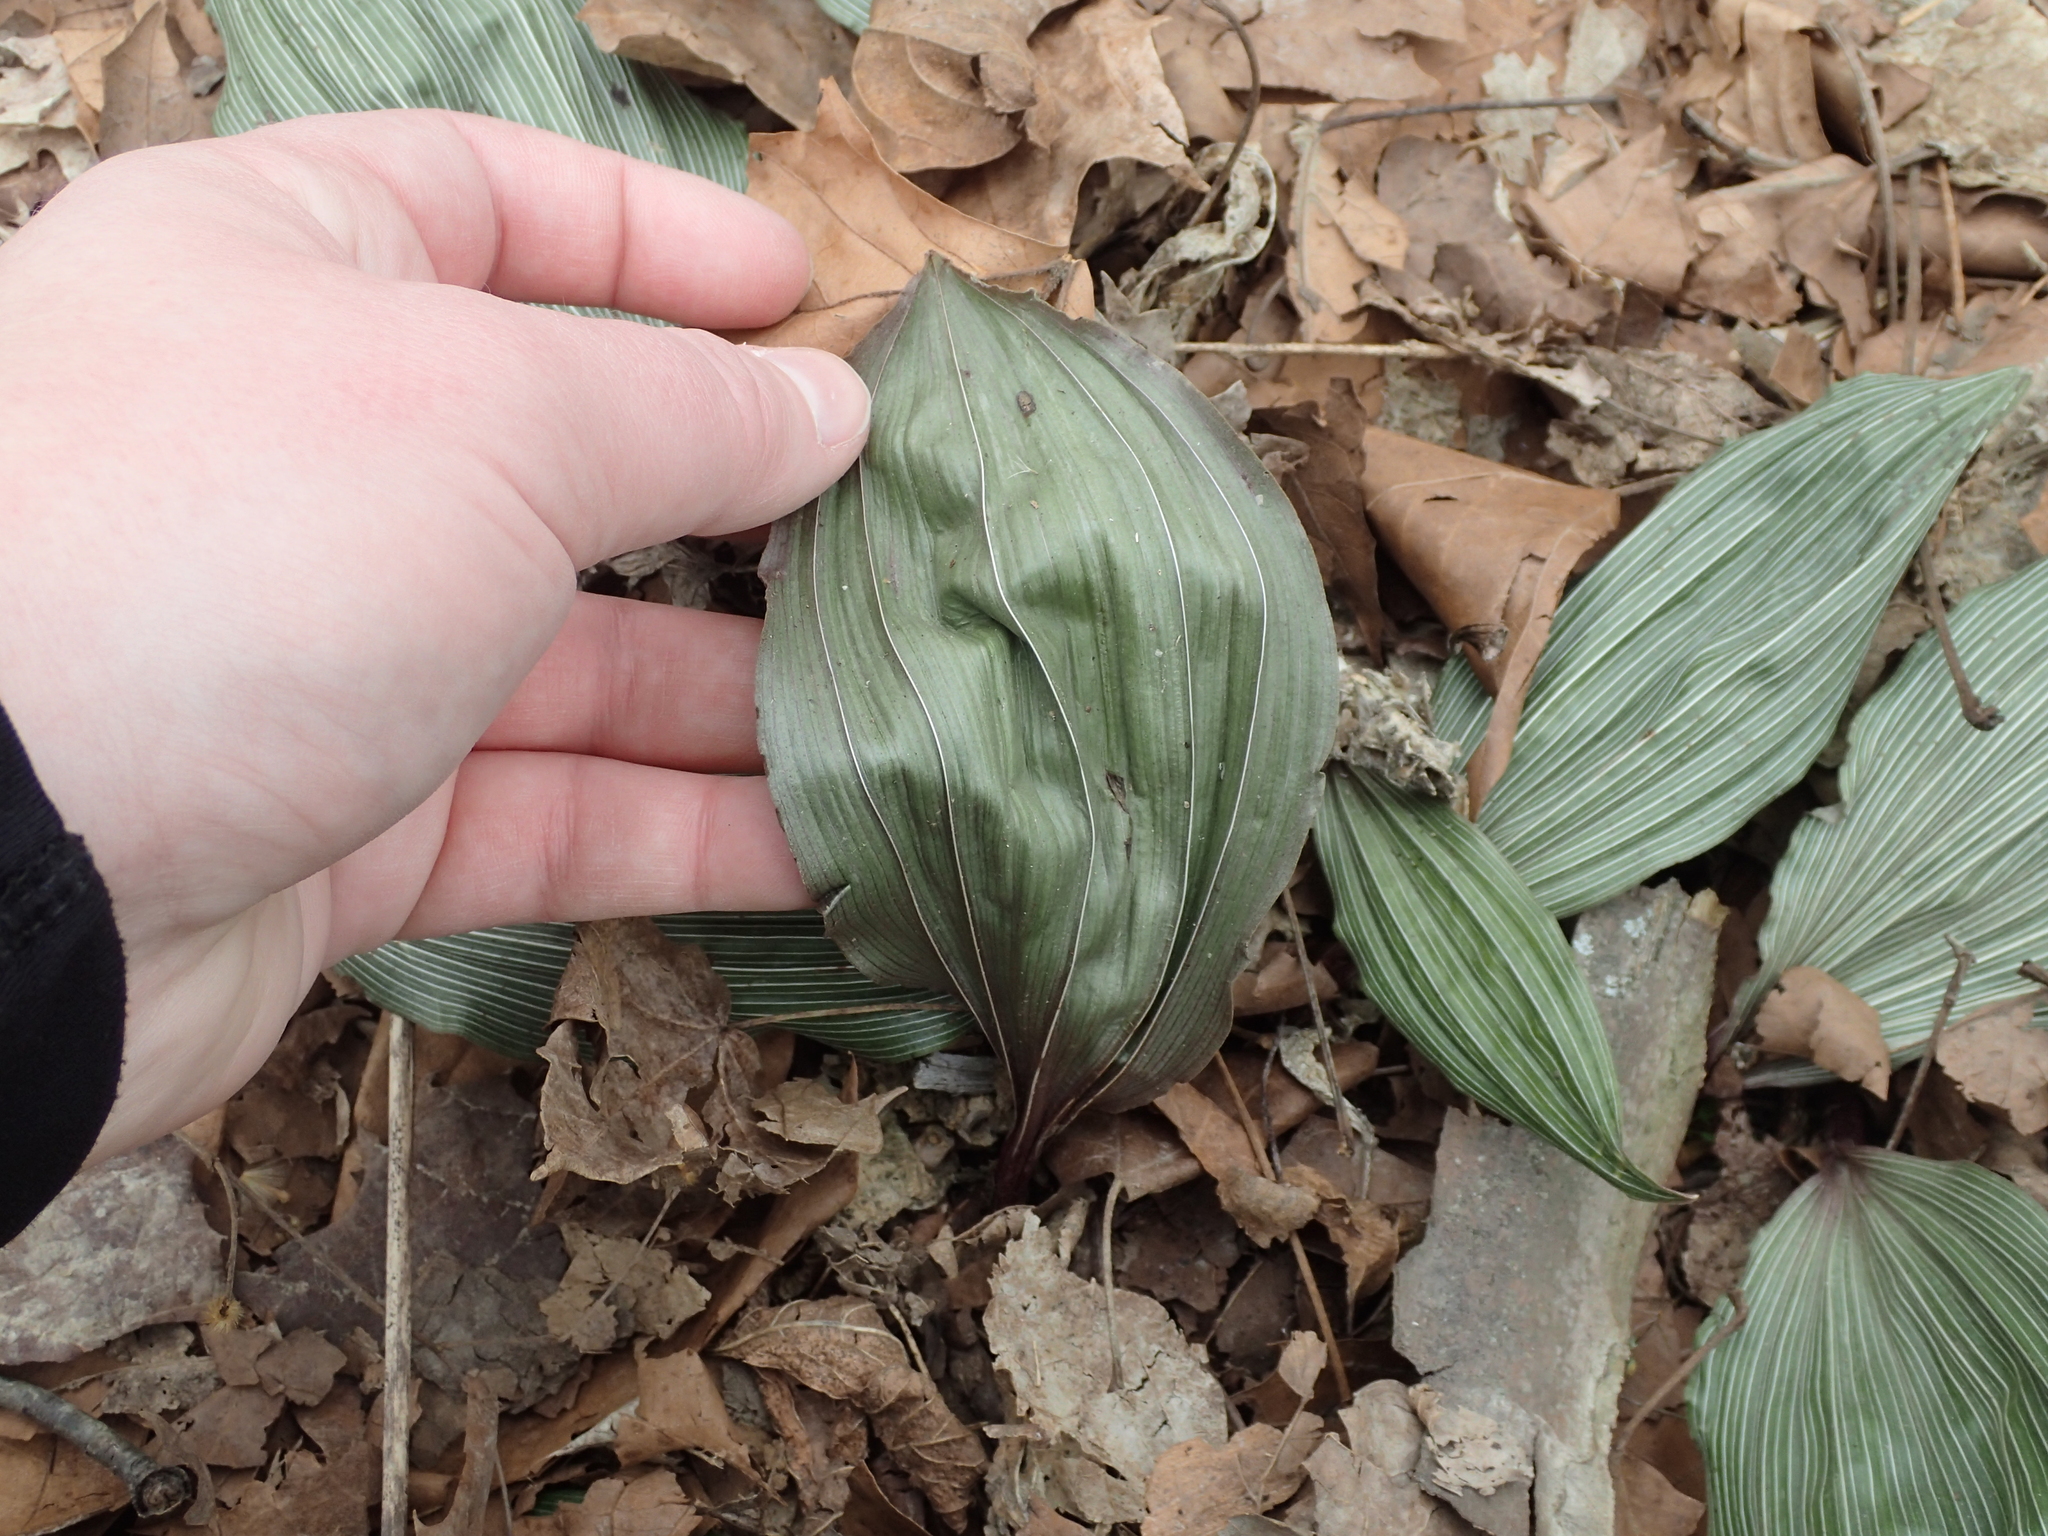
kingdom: Plantae
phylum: Tracheophyta
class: Liliopsida
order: Asparagales
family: Orchidaceae
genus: Aplectrum
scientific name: Aplectrum hyemale
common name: Adam-and-eve
